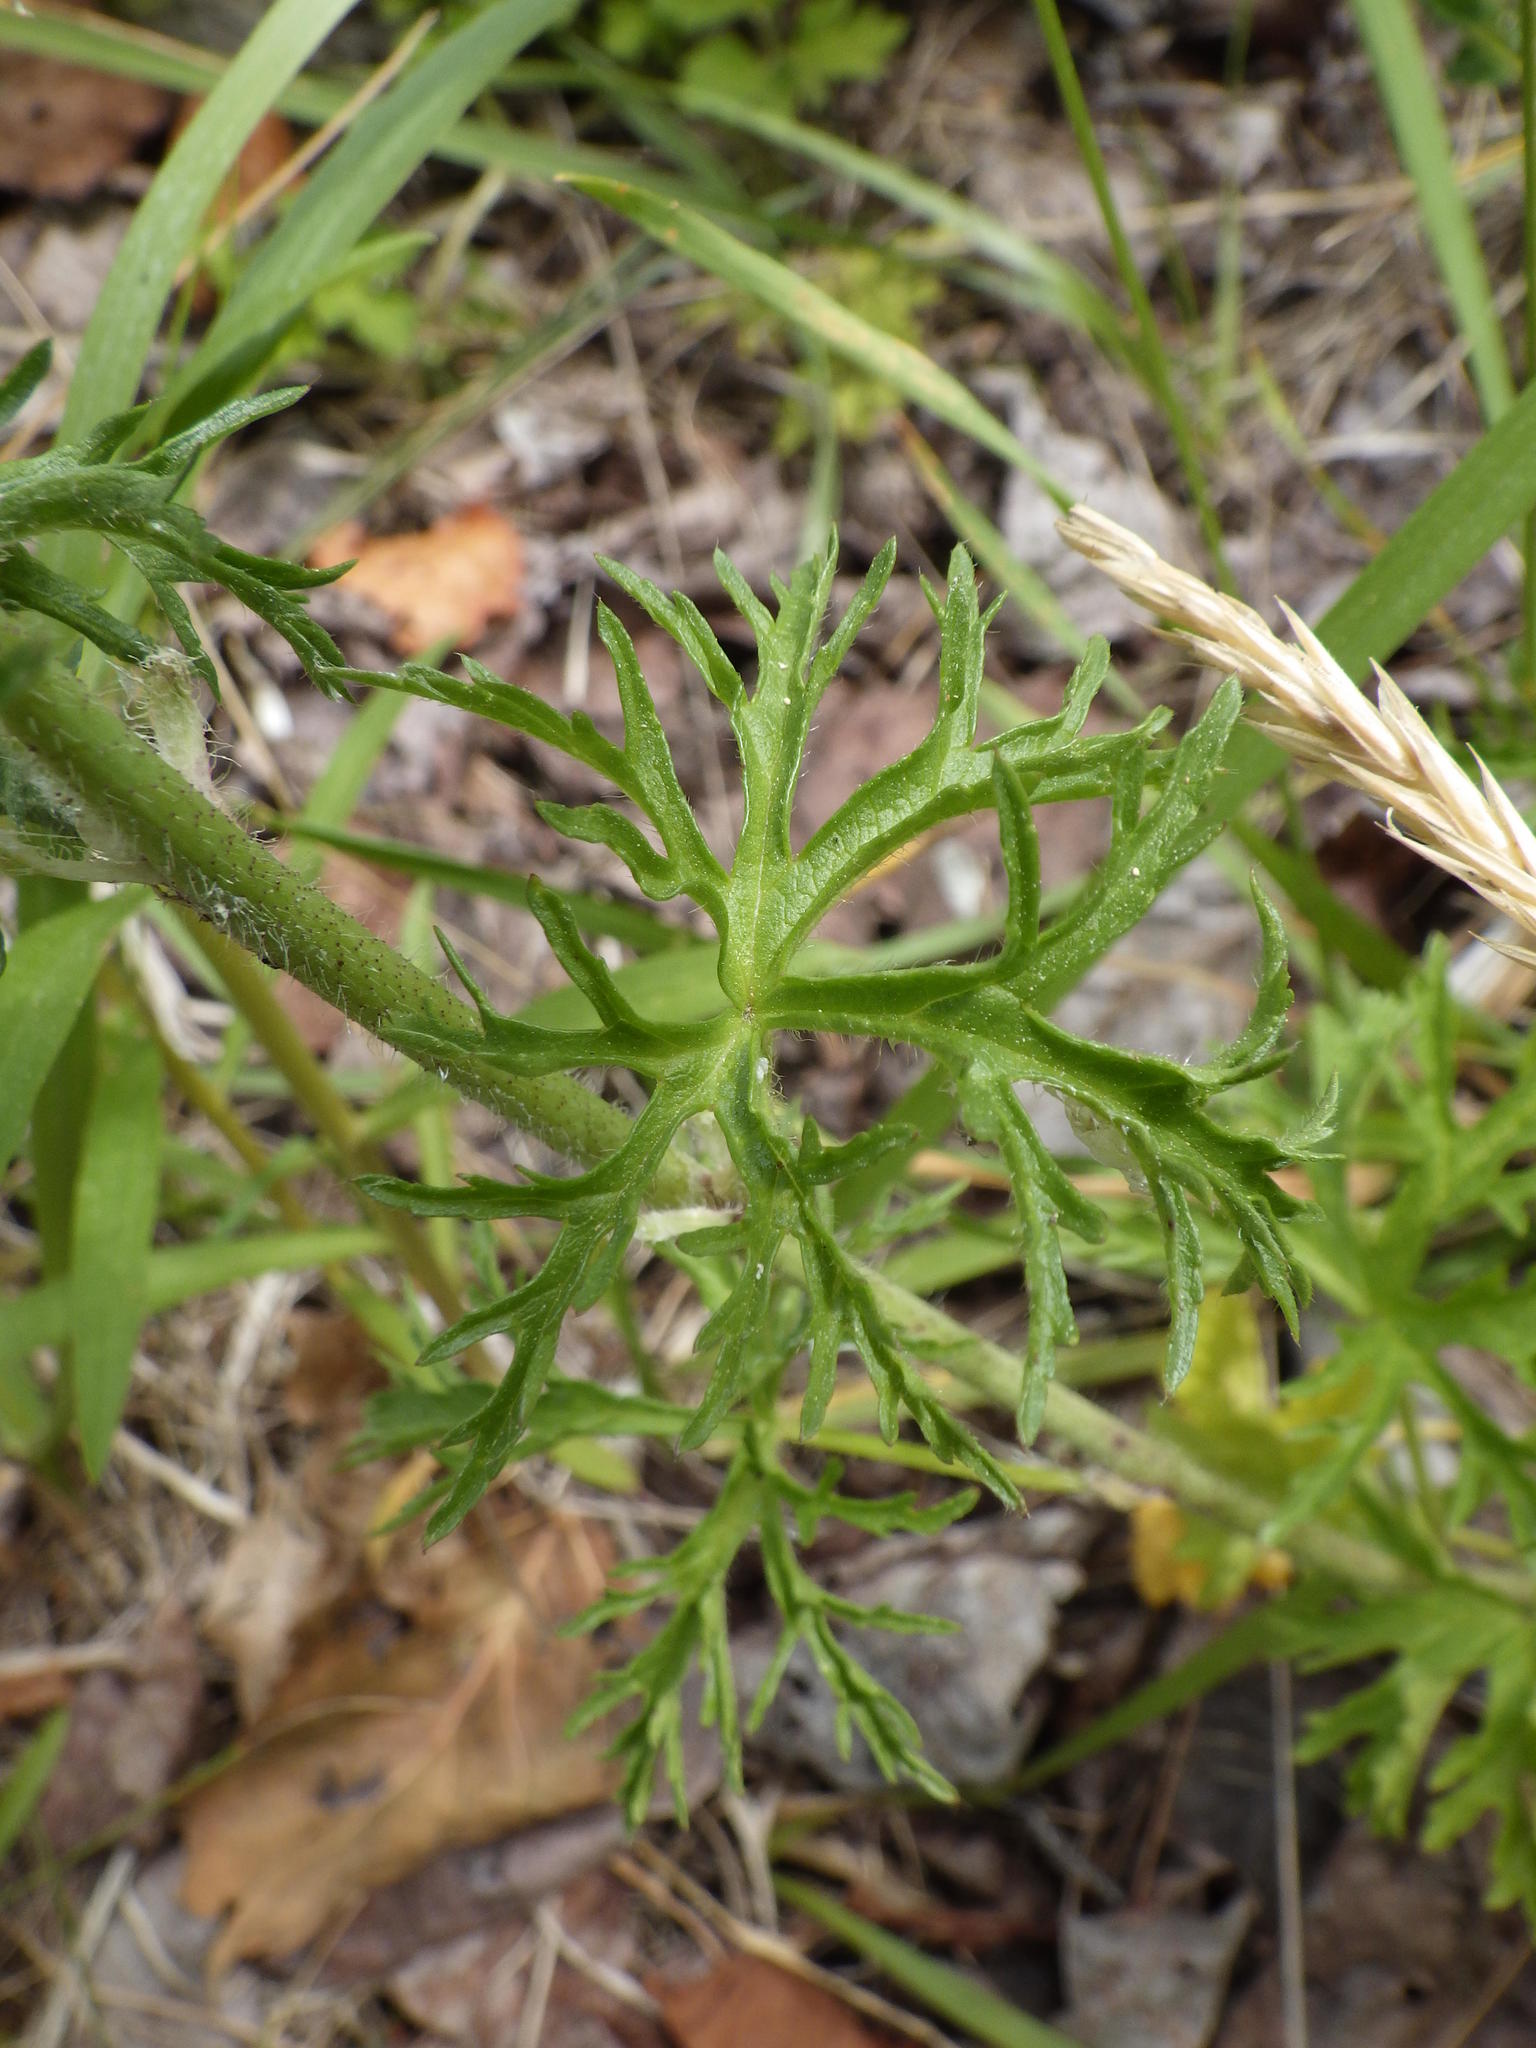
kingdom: Plantae
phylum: Tracheophyta
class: Magnoliopsida
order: Malvales
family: Malvaceae
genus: Malva
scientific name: Malva moschata
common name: Musk mallow
